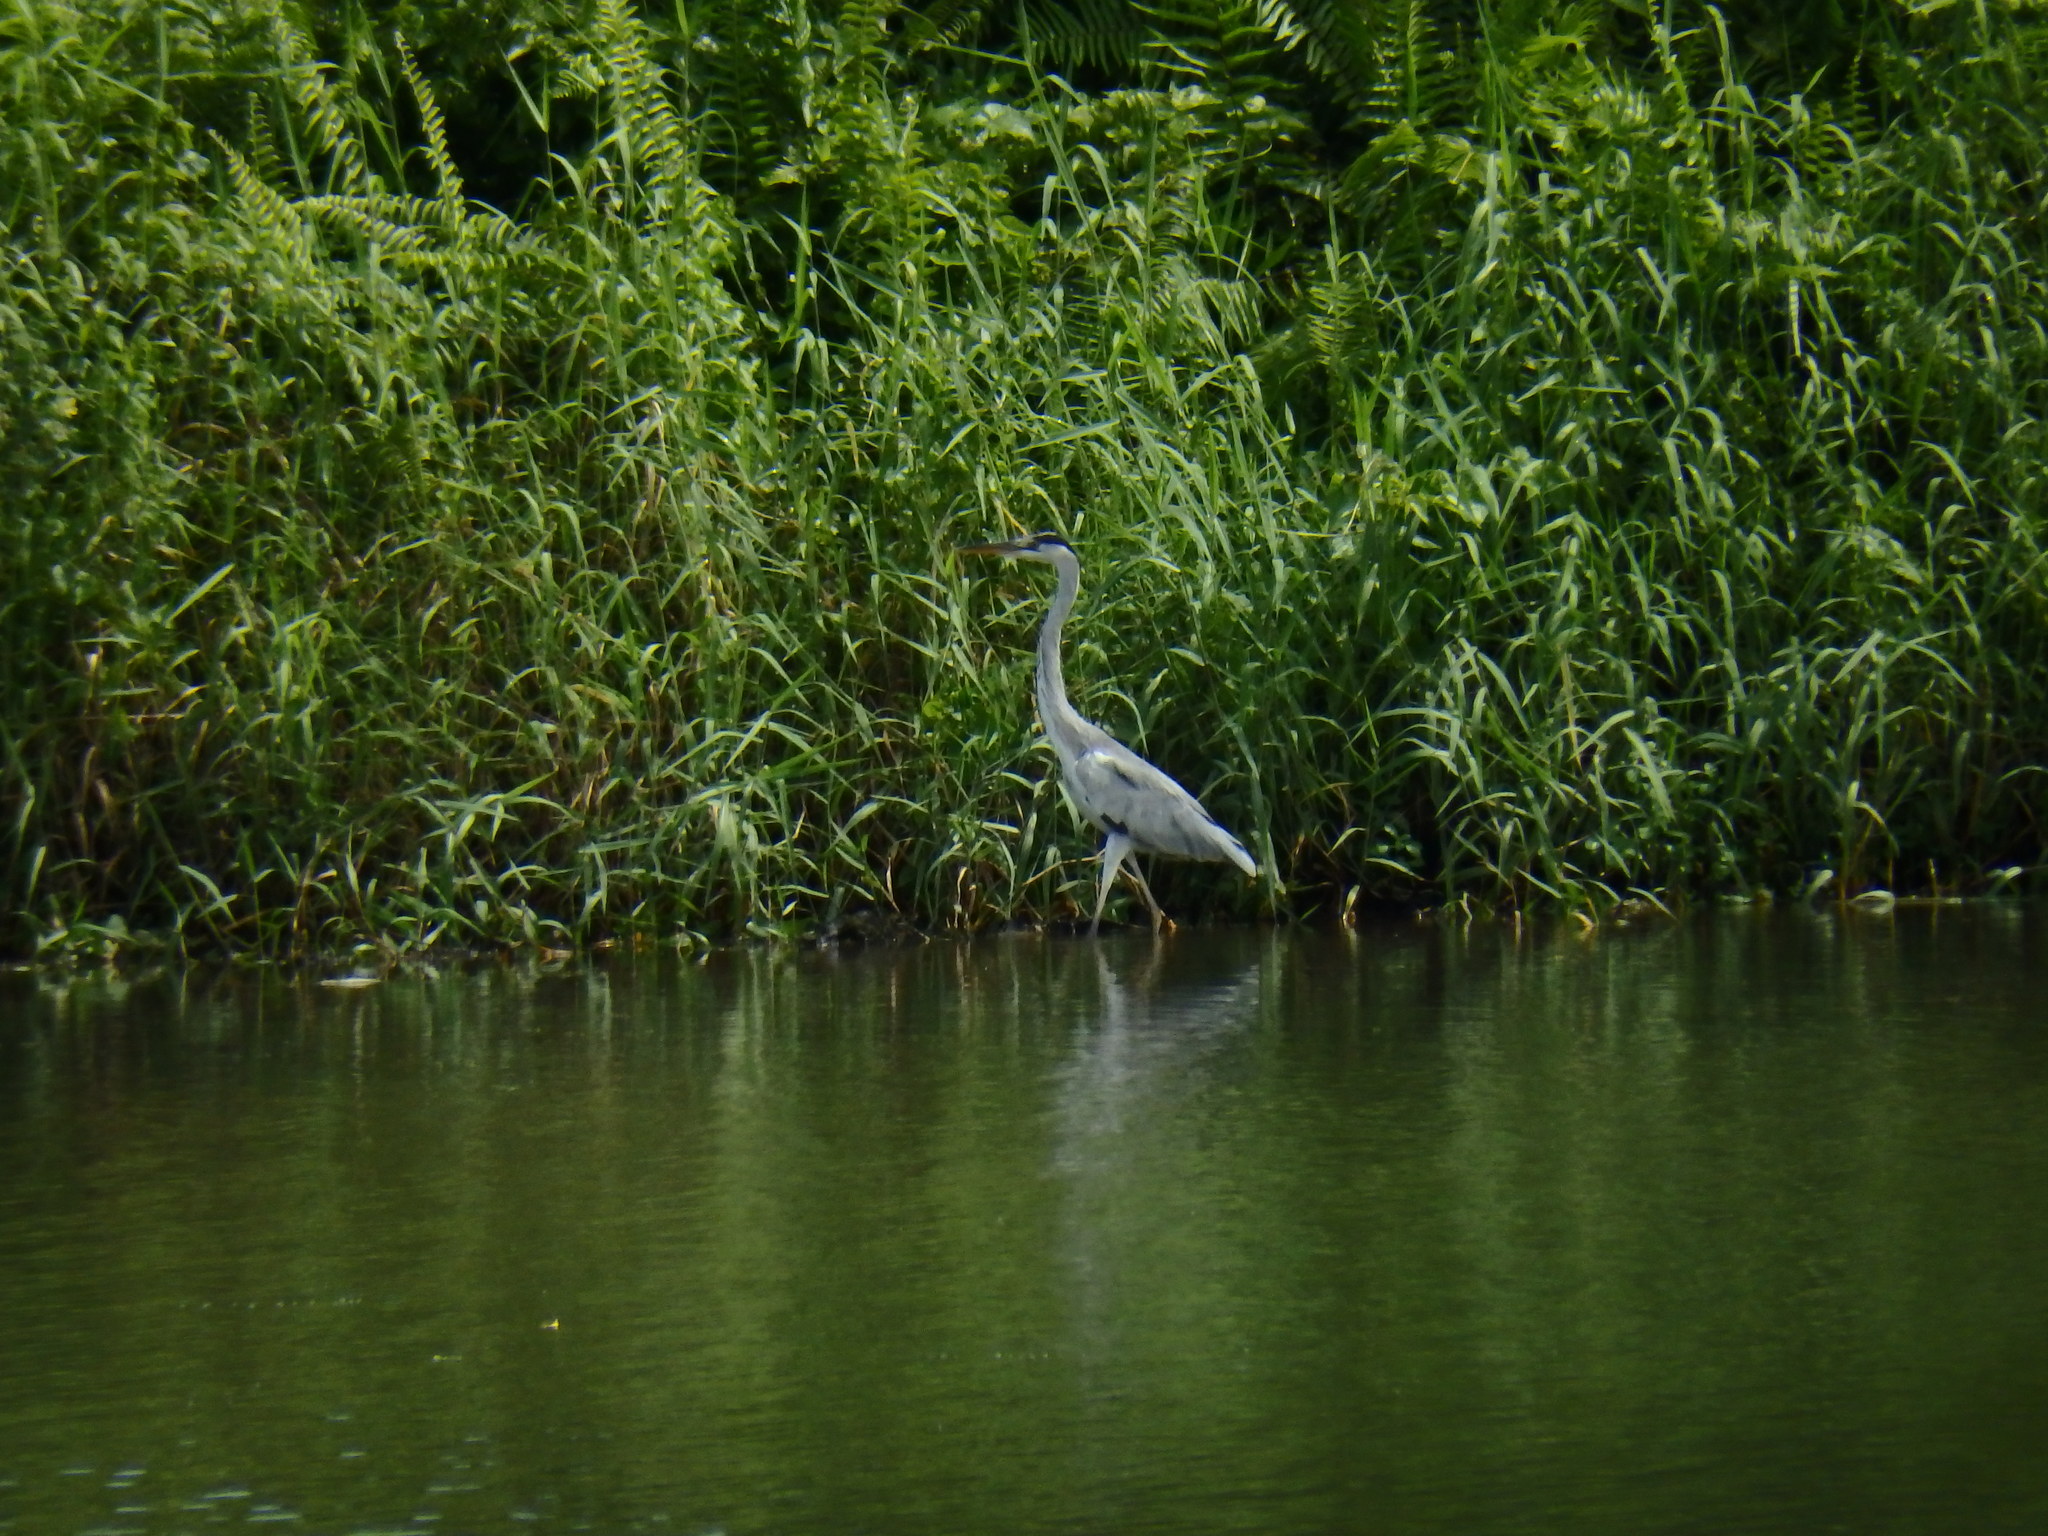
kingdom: Animalia
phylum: Chordata
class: Aves
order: Pelecaniformes
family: Ardeidae
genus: Ardea
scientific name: Ardea cinerea
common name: Grey heron
